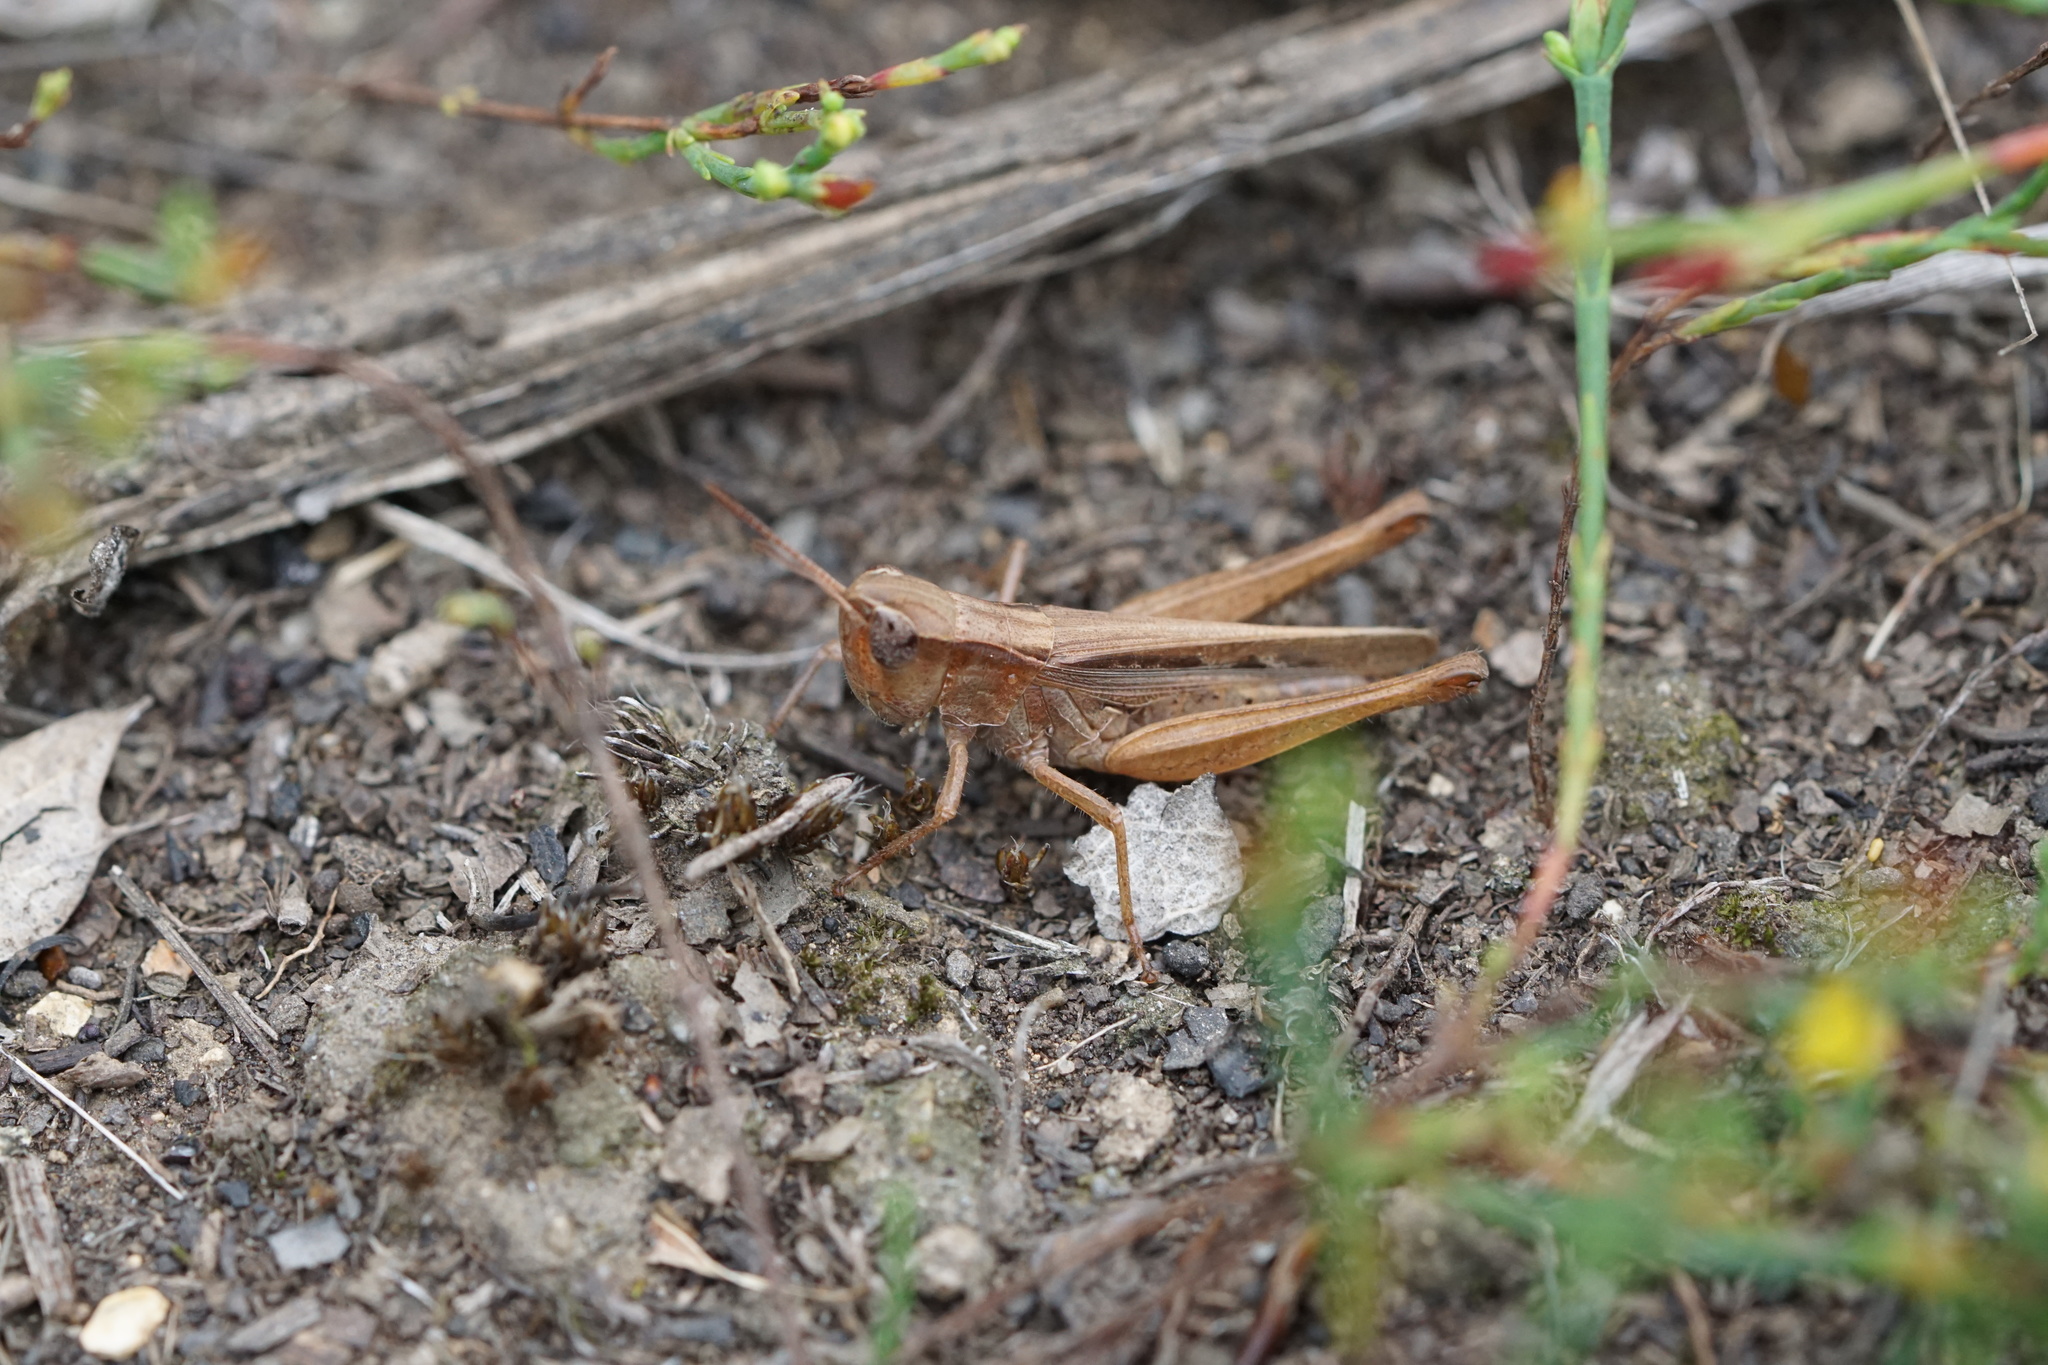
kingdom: Animalia
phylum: Arthropoda
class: Insecta
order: Orthoptera
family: Acrididae
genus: Orphulella
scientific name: Orphulella speciosa
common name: Pasture grasshopper
